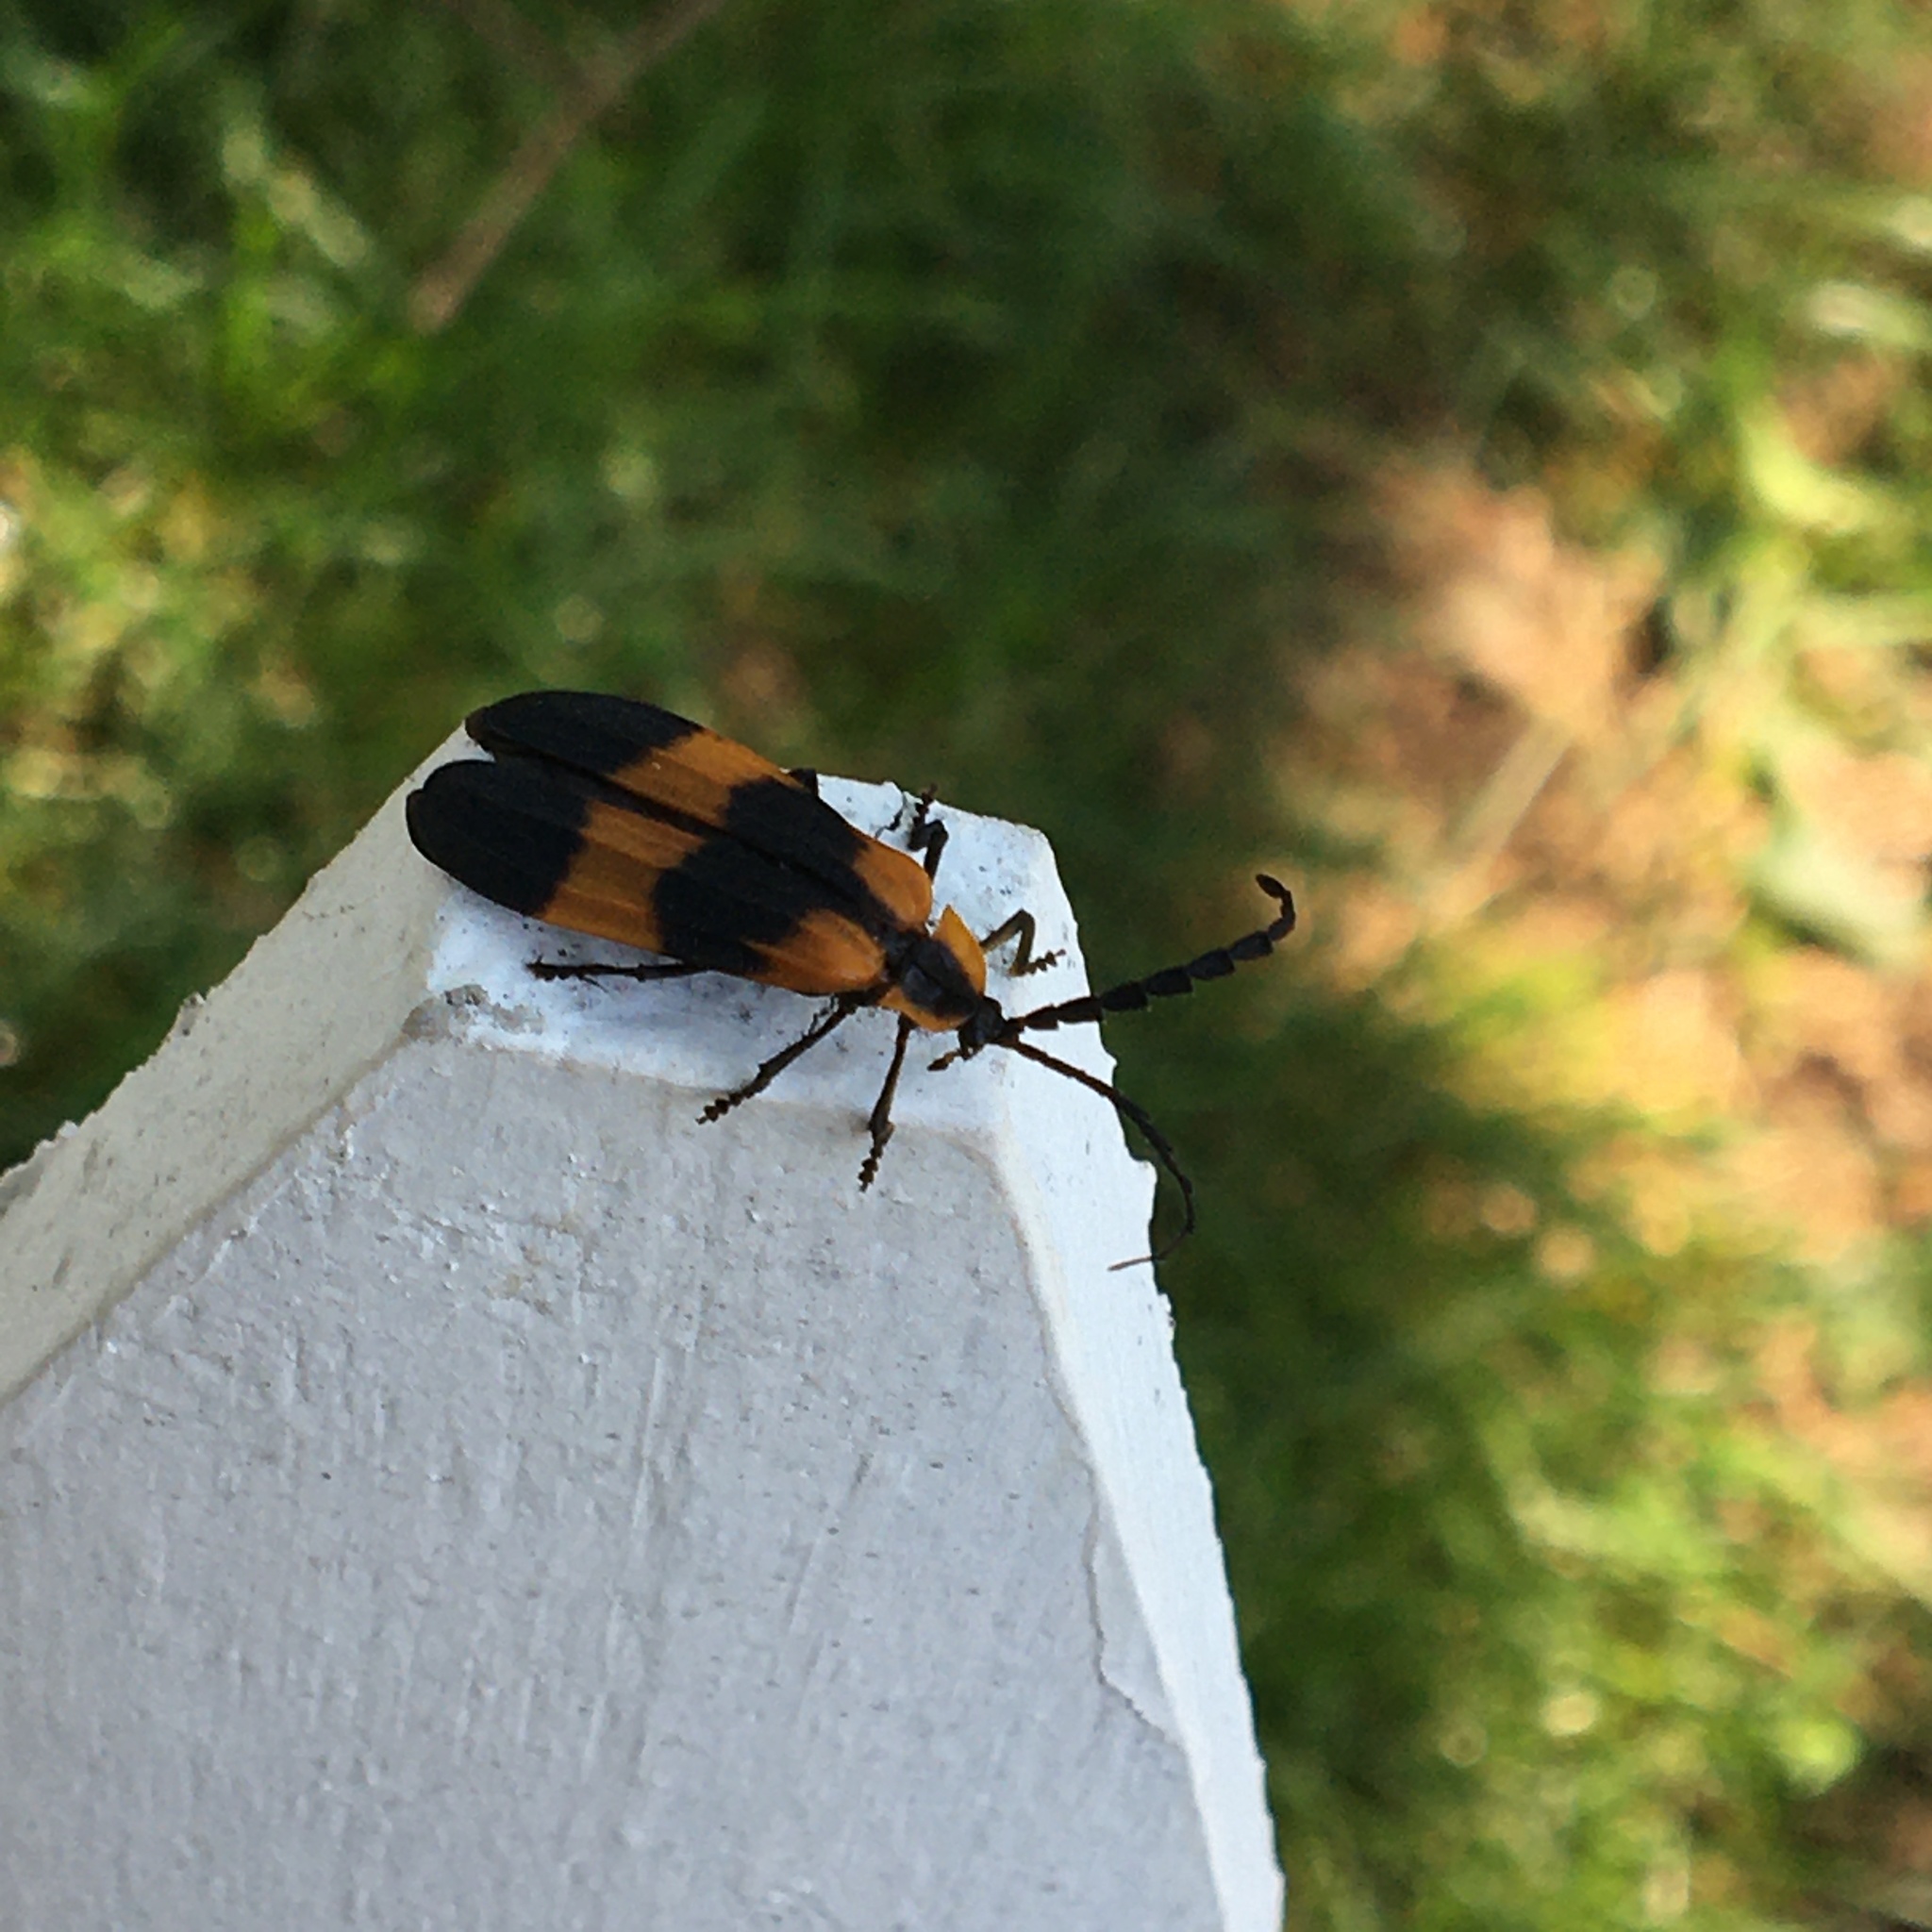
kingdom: Animalia
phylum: Arthropoda
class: Insecta
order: Coleoptera
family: Lycidae
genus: Calopteron
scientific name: Calopteron reticulatum
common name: Banded net-winged beetle
